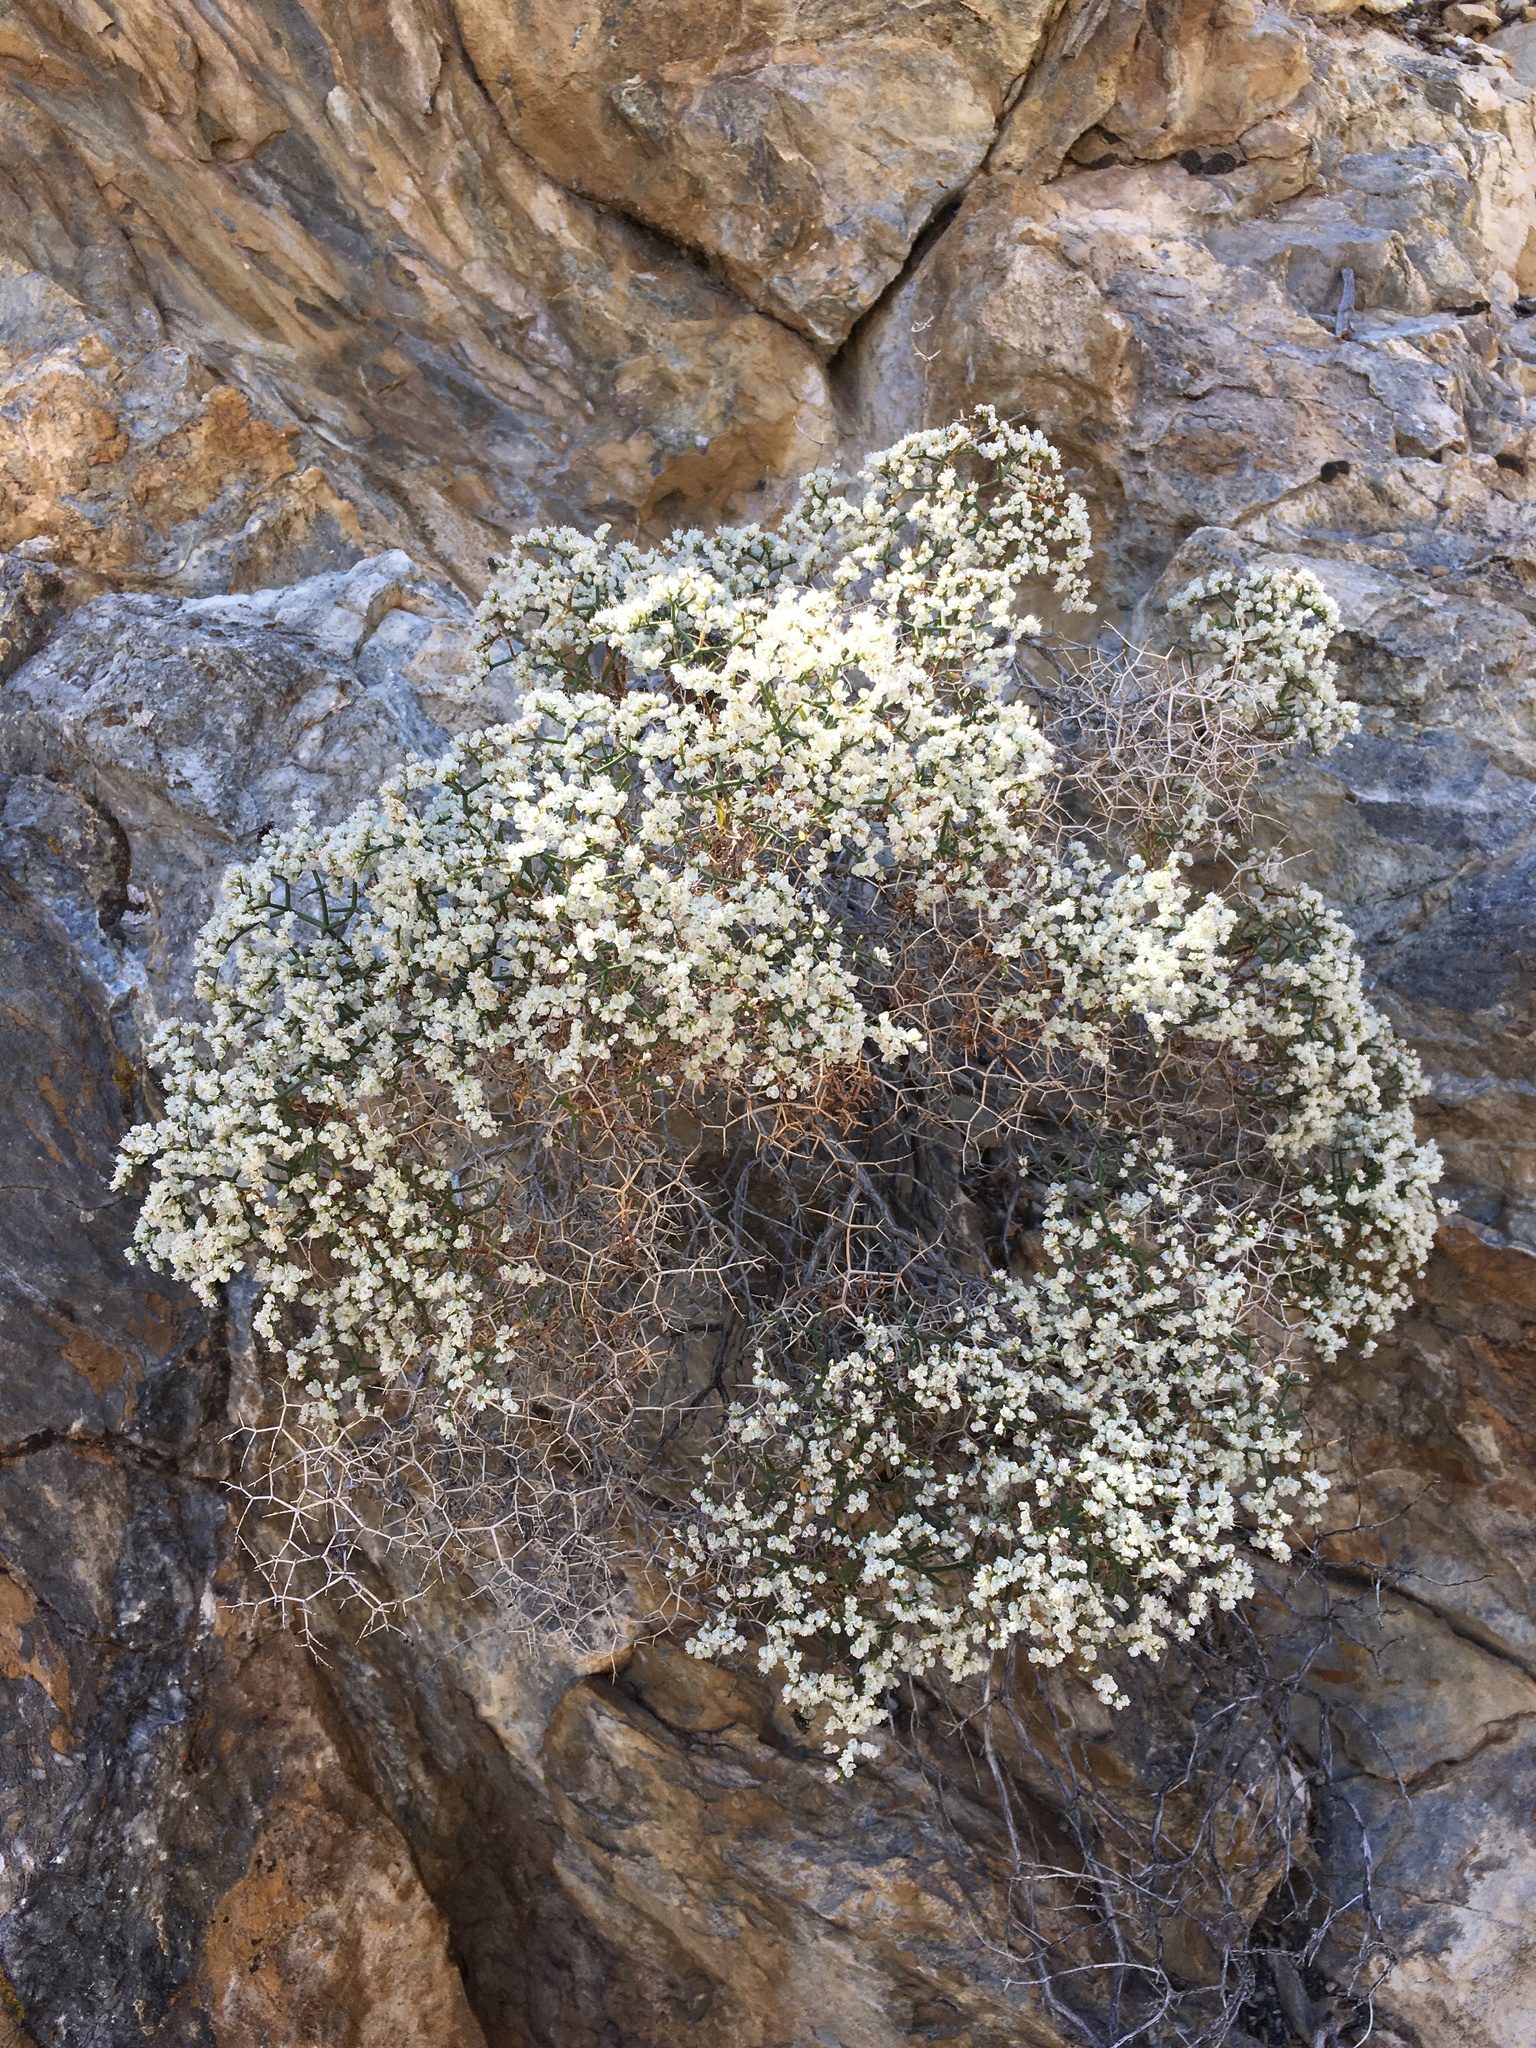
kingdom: Plantae
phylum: Tracheophyta
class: Magnoliopsida
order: Caryophyllales
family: Polygonaceae
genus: Eriogonum
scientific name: Eriogonum heermannii
